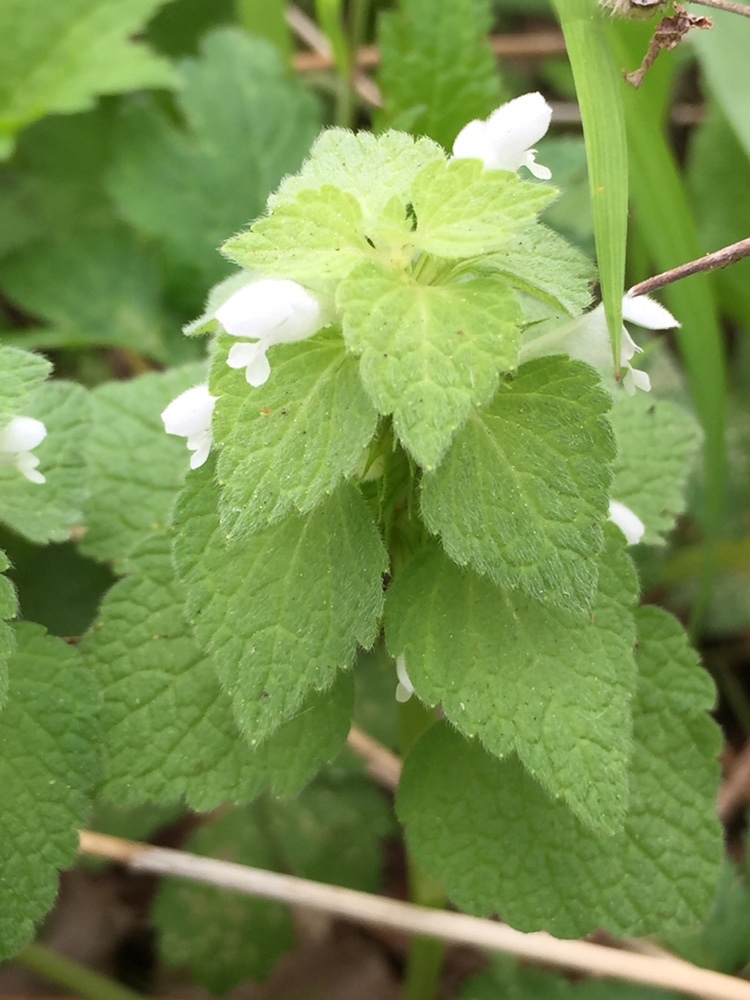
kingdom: Plantae
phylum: Tracheophyta
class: Magnoliopsida
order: Lamiales
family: Lamiaceae
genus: Lamium
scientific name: Lamium purpureum
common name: Red dead-nettle
